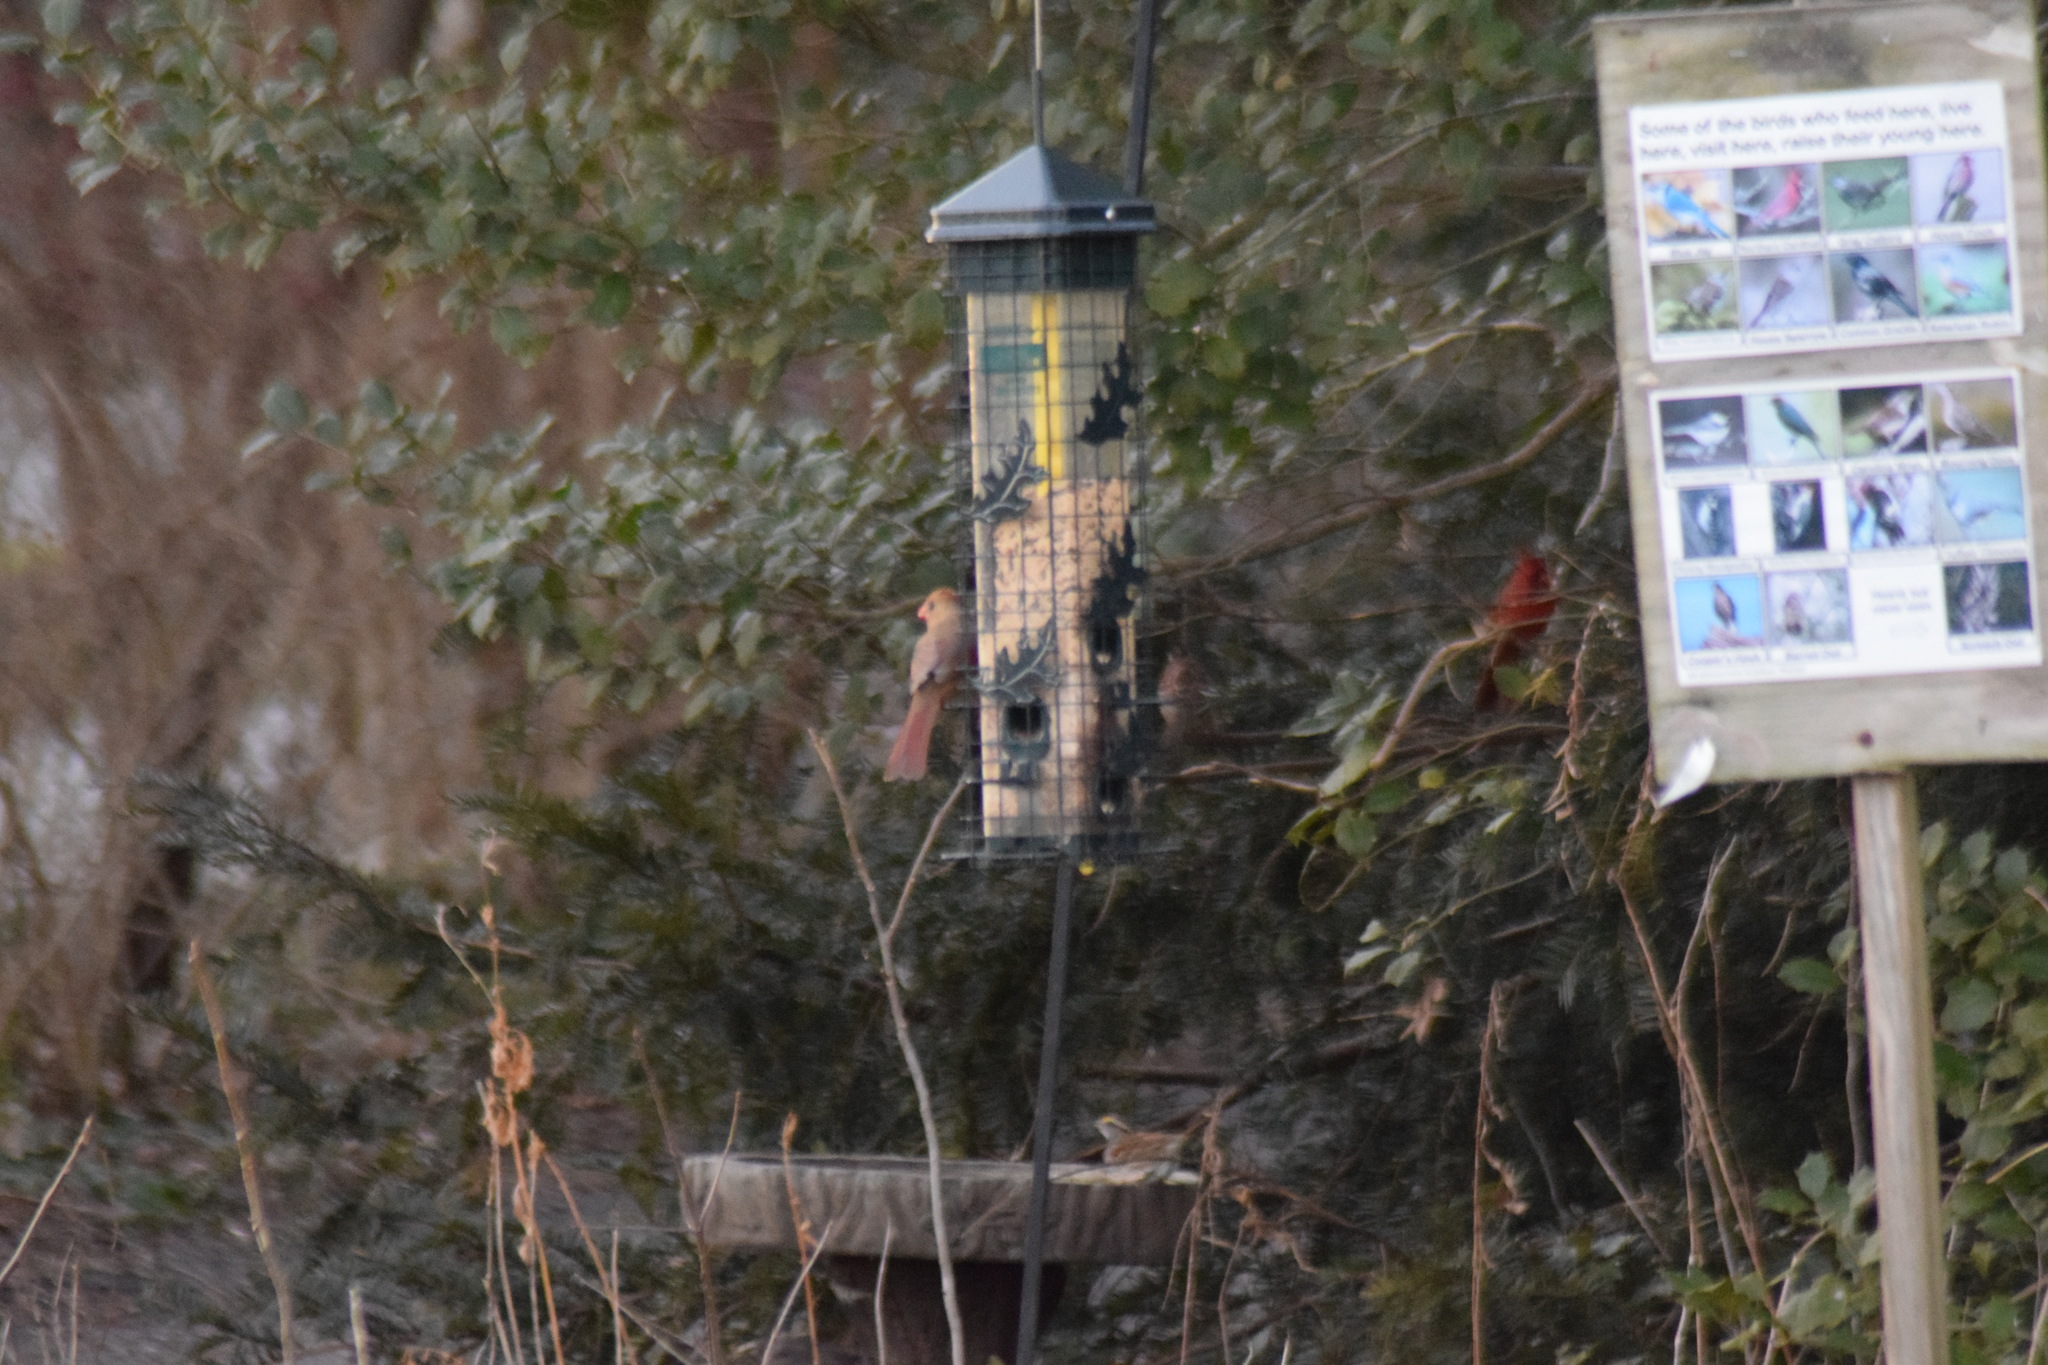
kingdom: Animalia
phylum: Chordata
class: Aves
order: Passeriformes
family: Cardinalidae
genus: Cardinalis
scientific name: Cardinalis cardinalis
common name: Northern cardinal
